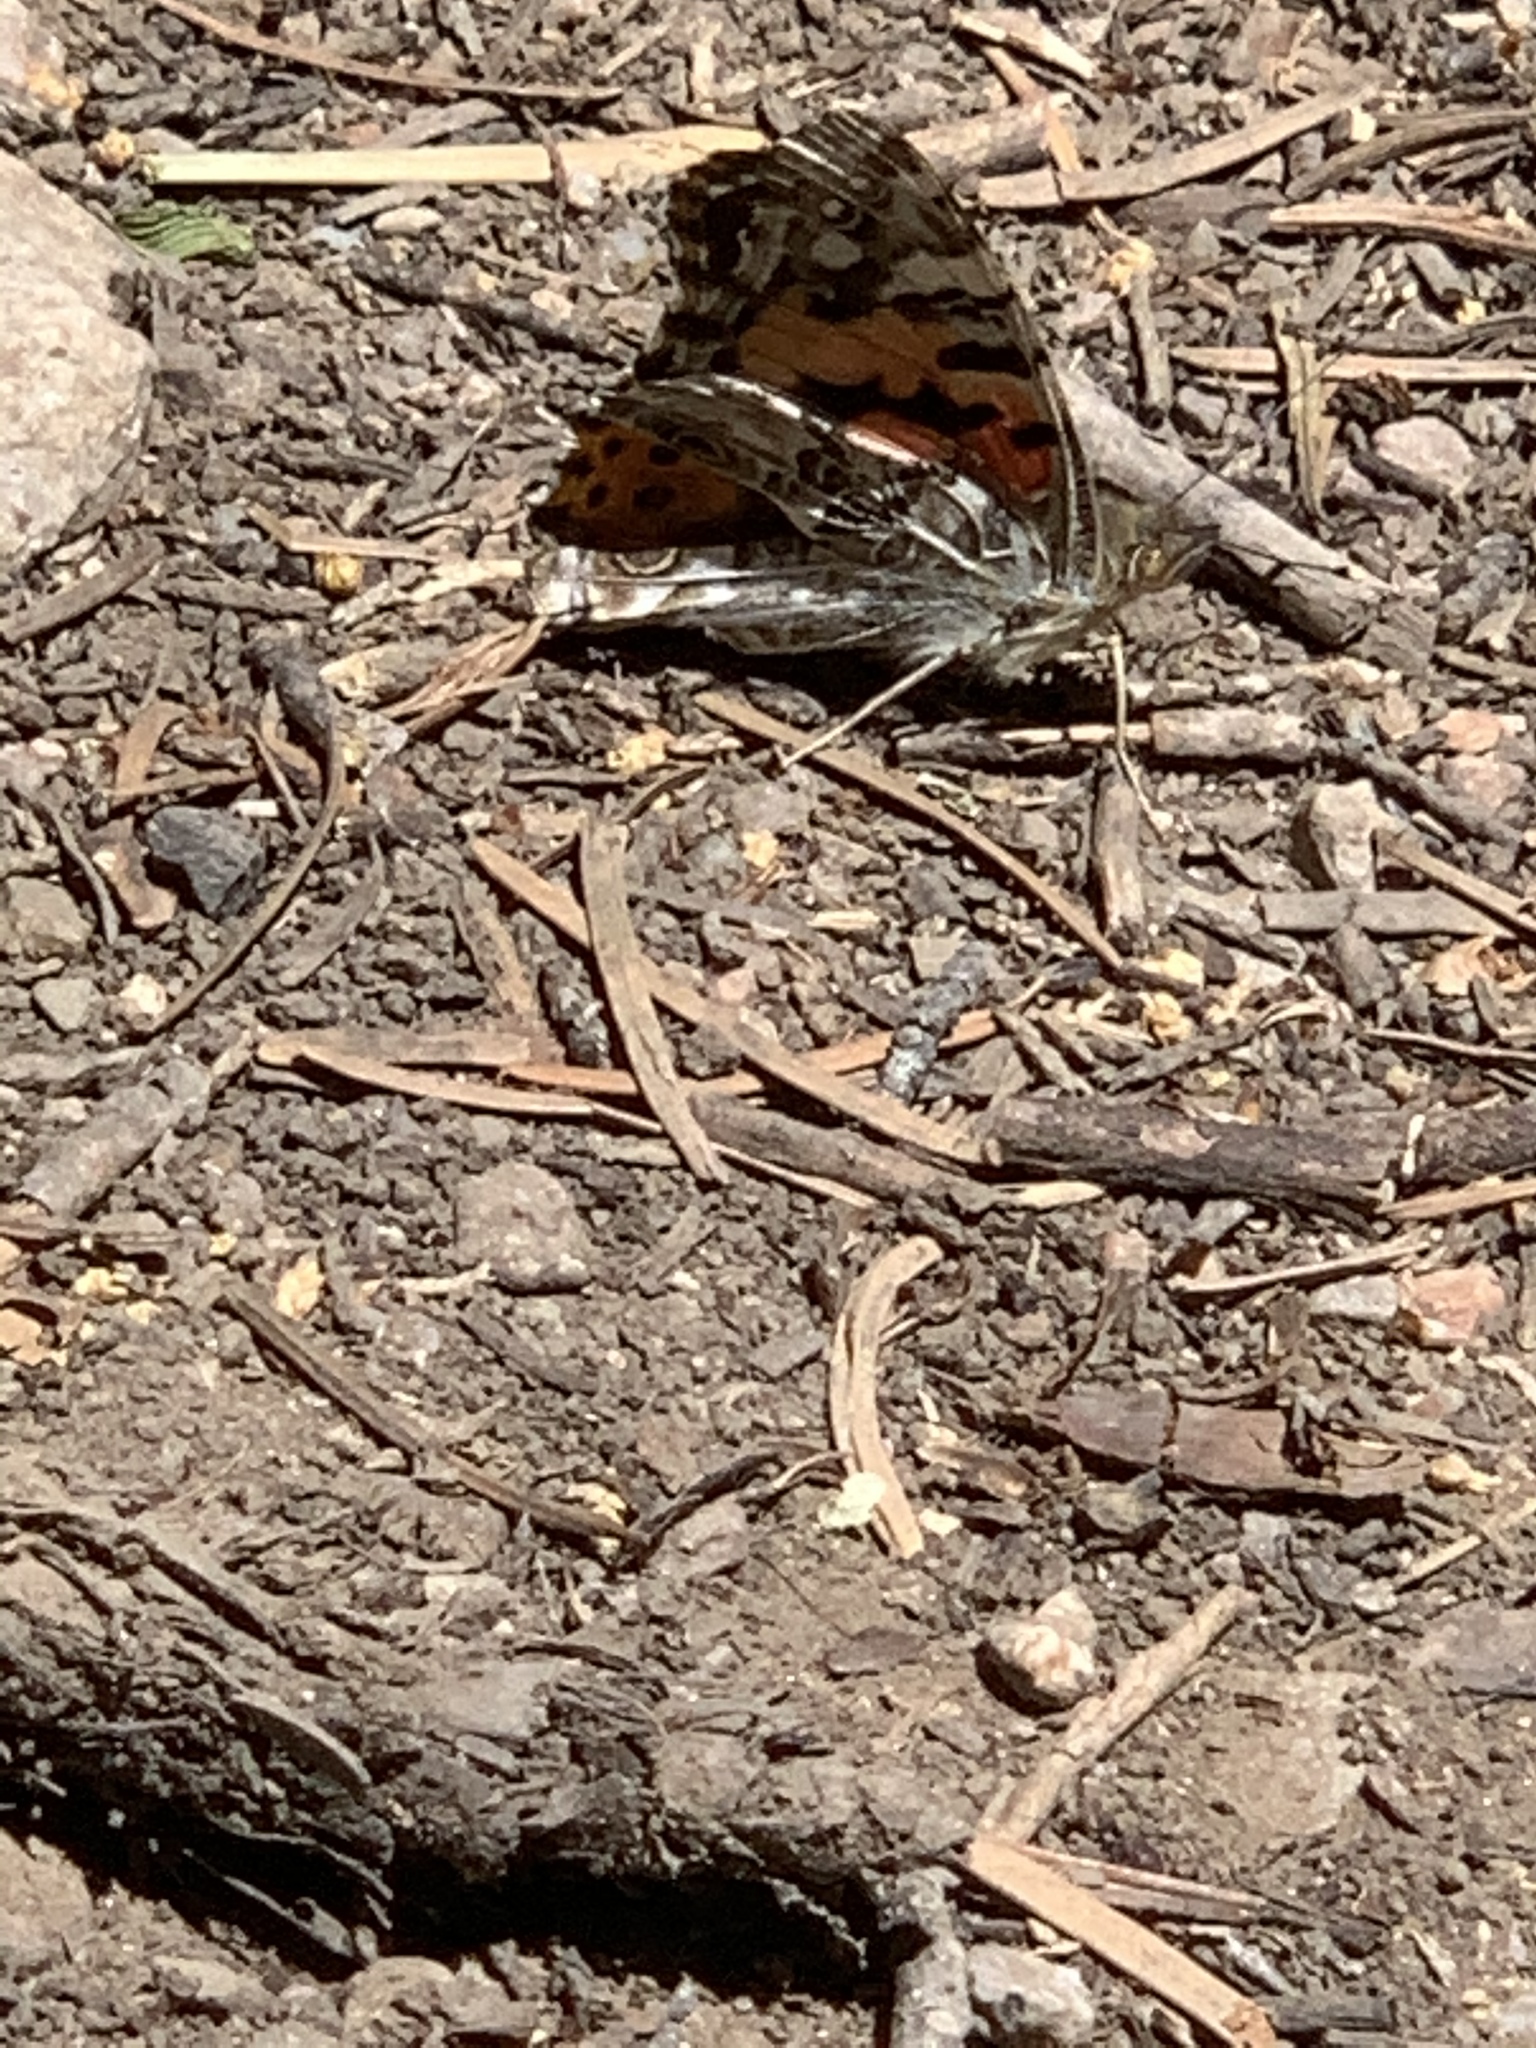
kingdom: Animalia
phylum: Arthropoda
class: Insecta
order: Lepidoptera
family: Nymphalidae
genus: Vanessa
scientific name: Vanessa cardui
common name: Painted lady
